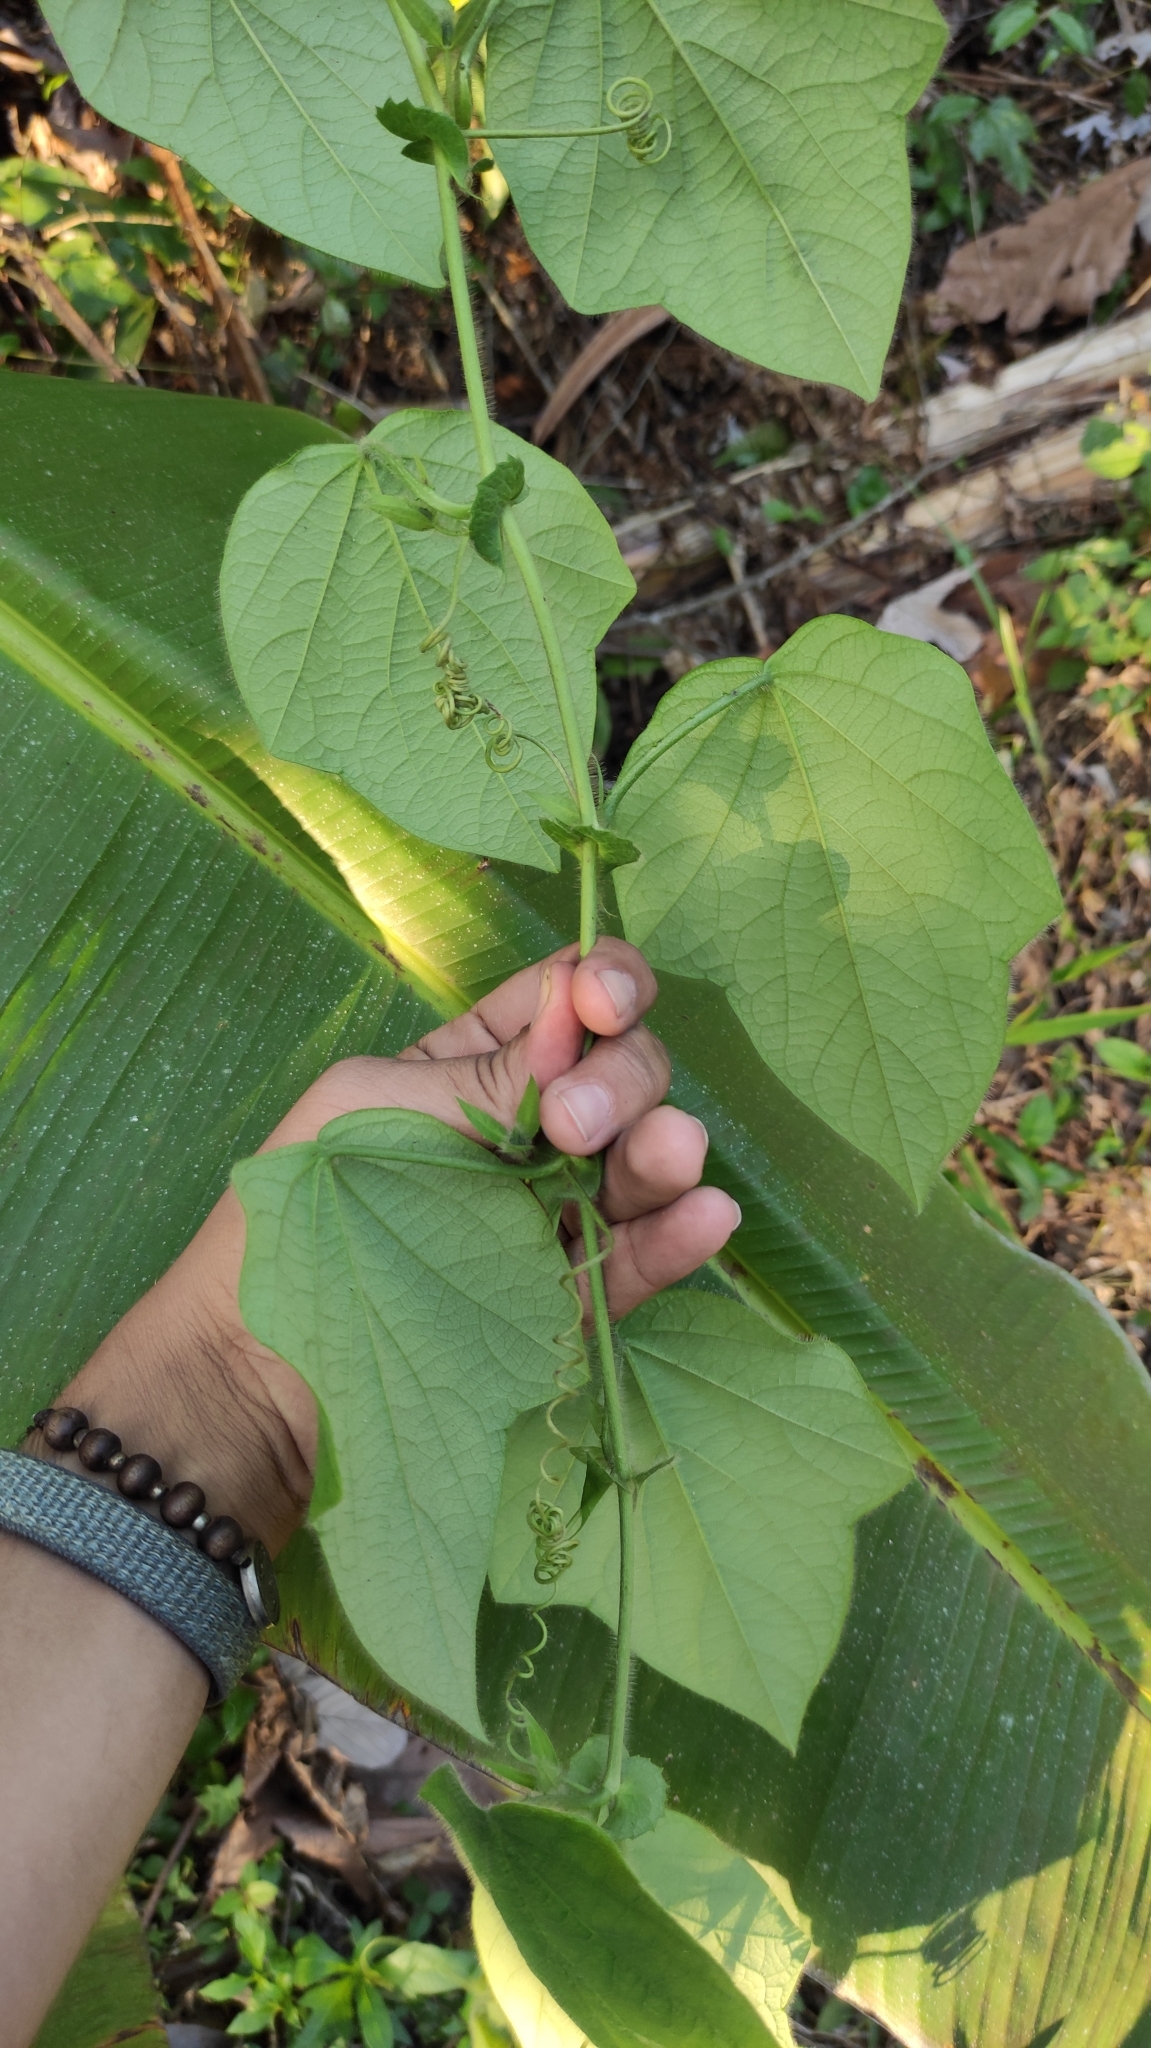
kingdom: Plantae
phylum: Tracheophyta
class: Magnoliopsida
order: Malpighiales
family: Passifloraceae
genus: Passiflora
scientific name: Passiflora menispermifolia
